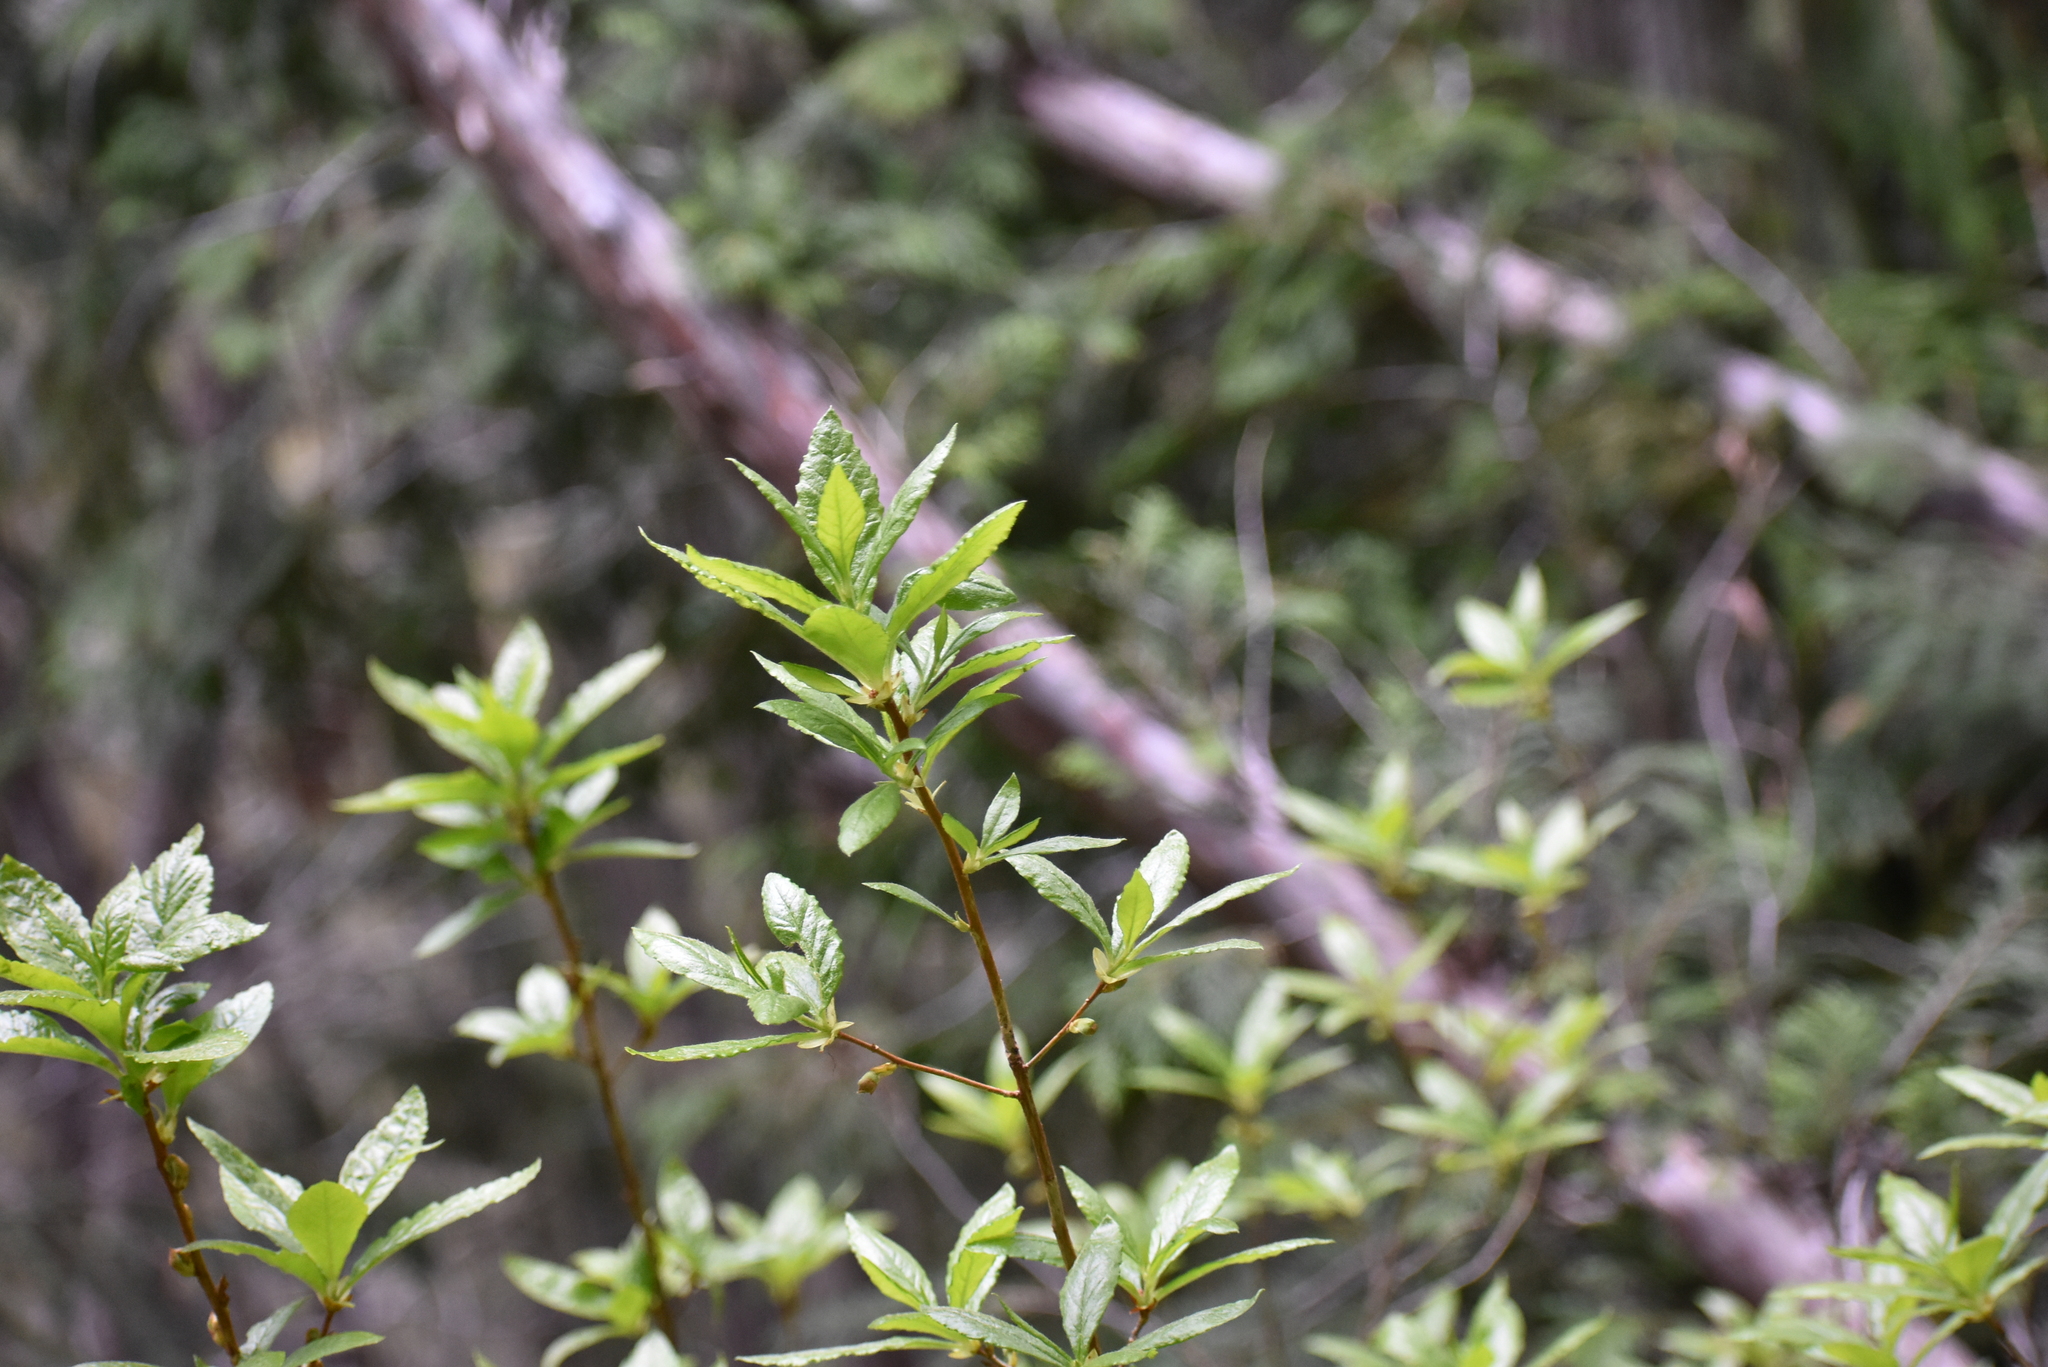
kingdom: Plantae
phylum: Tracheophyta
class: Magnoliopsida
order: Ericales
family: Ericaceae
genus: Rhododendron
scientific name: Rhododendron albiflorum
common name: White rhododendron
